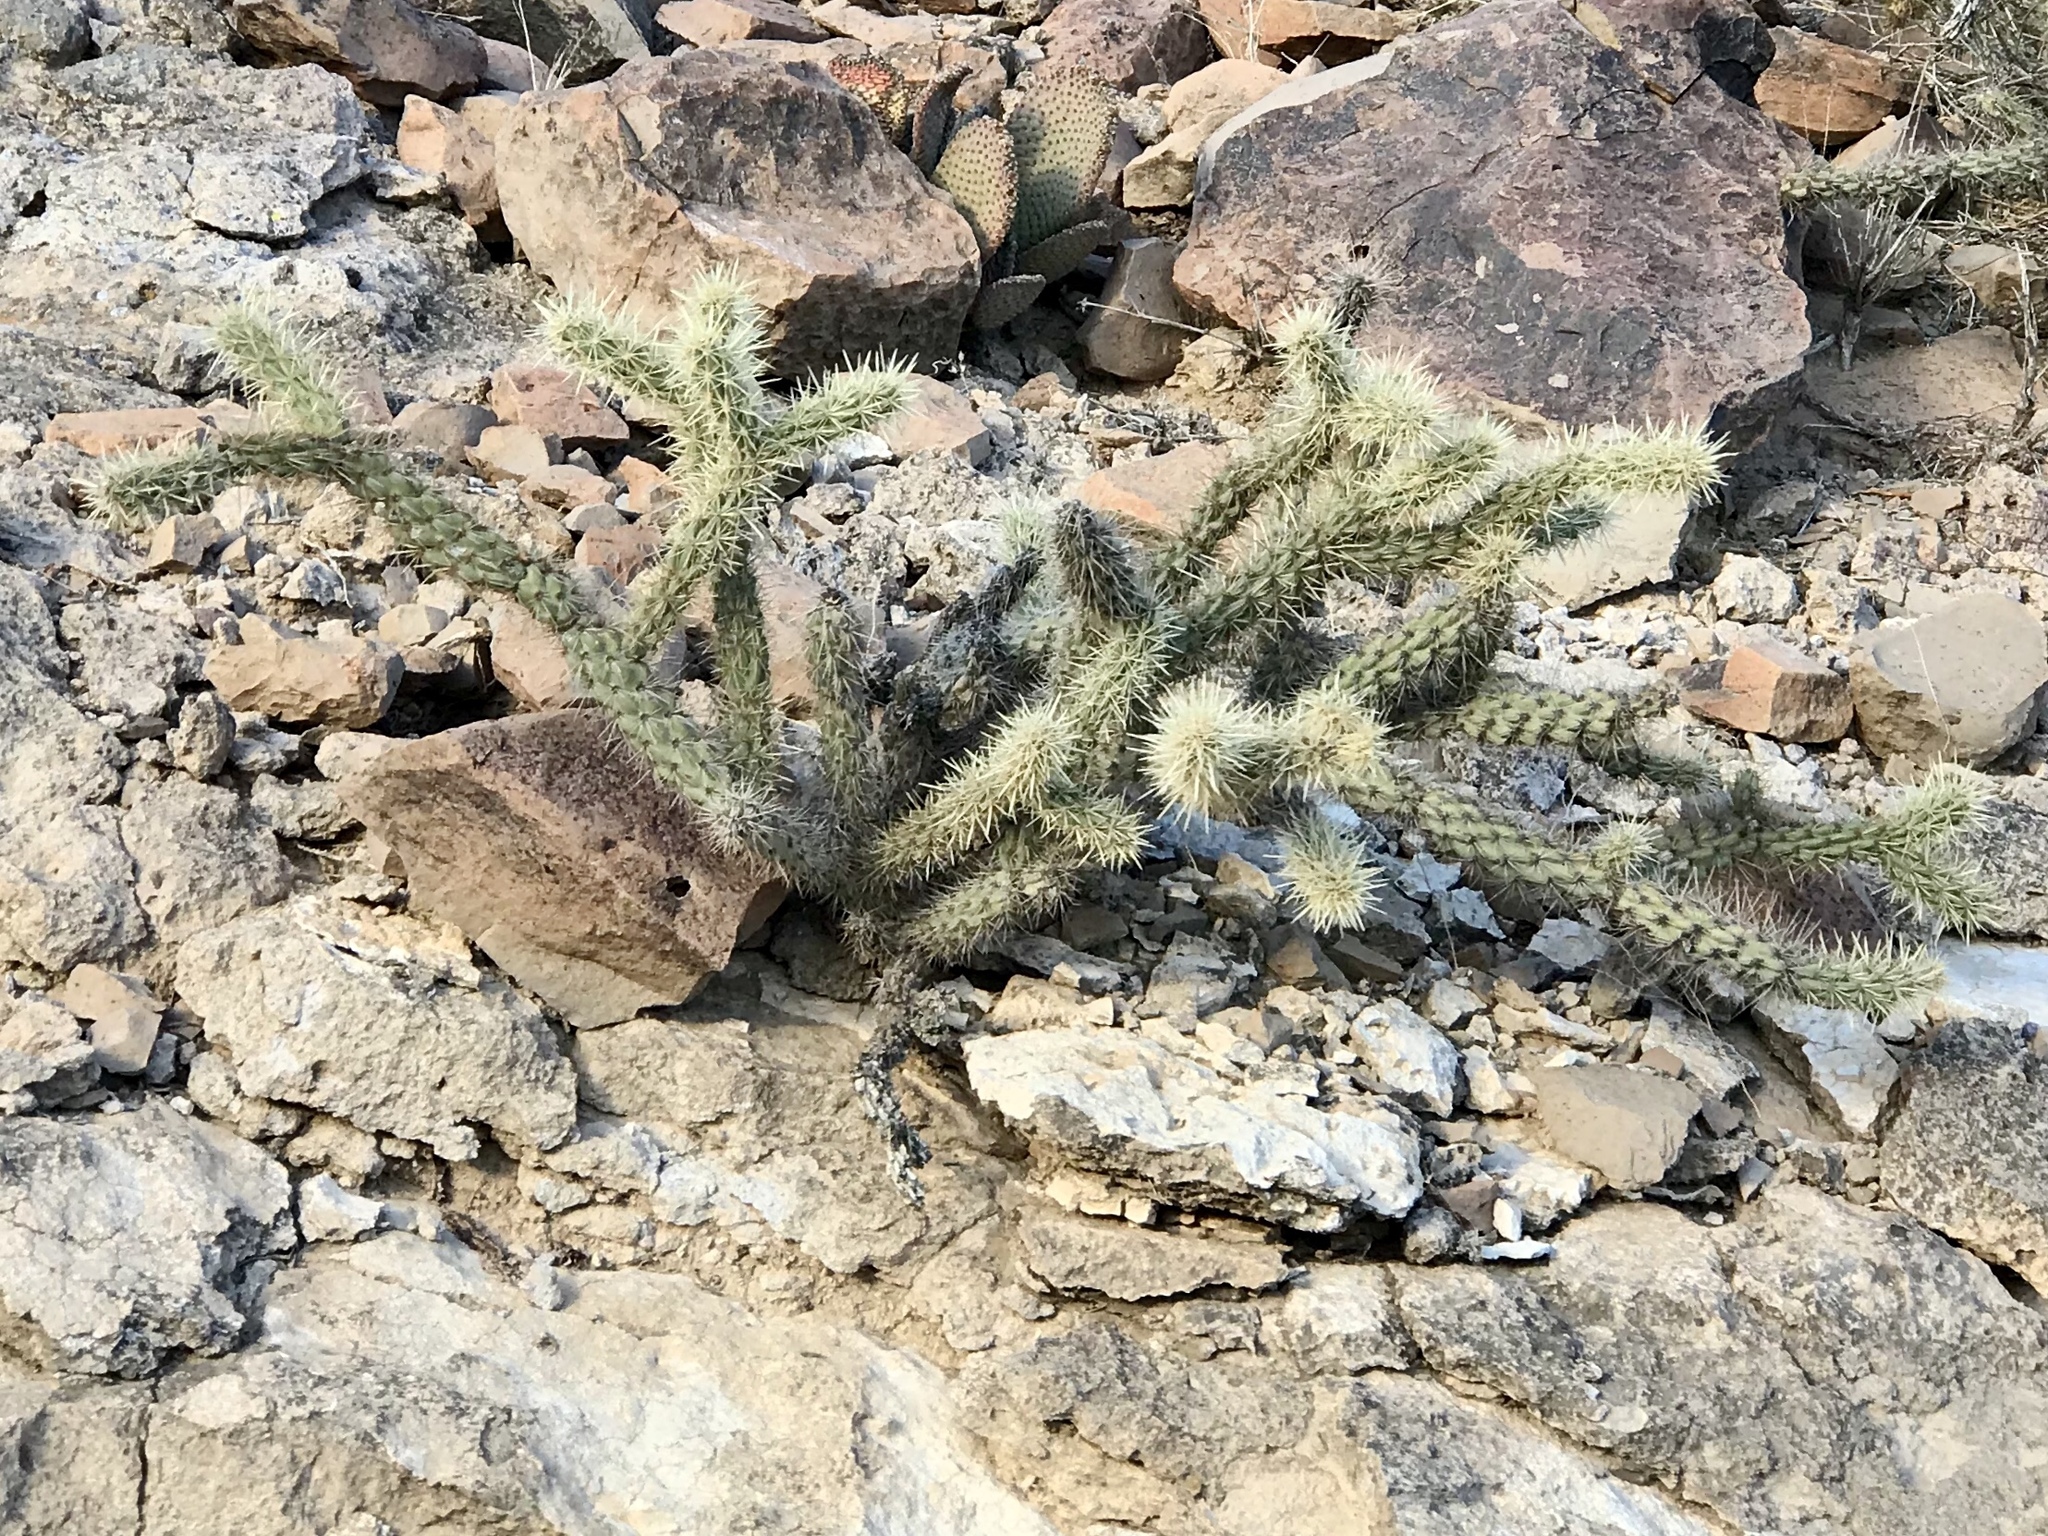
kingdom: Plantae
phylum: Tracheophyta
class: Magnoliopsida
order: Caryophyllales
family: Cactaceae
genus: Cylindropuntia
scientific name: Cylindropuntia acanthocarpa
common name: Buckhorn cholla
